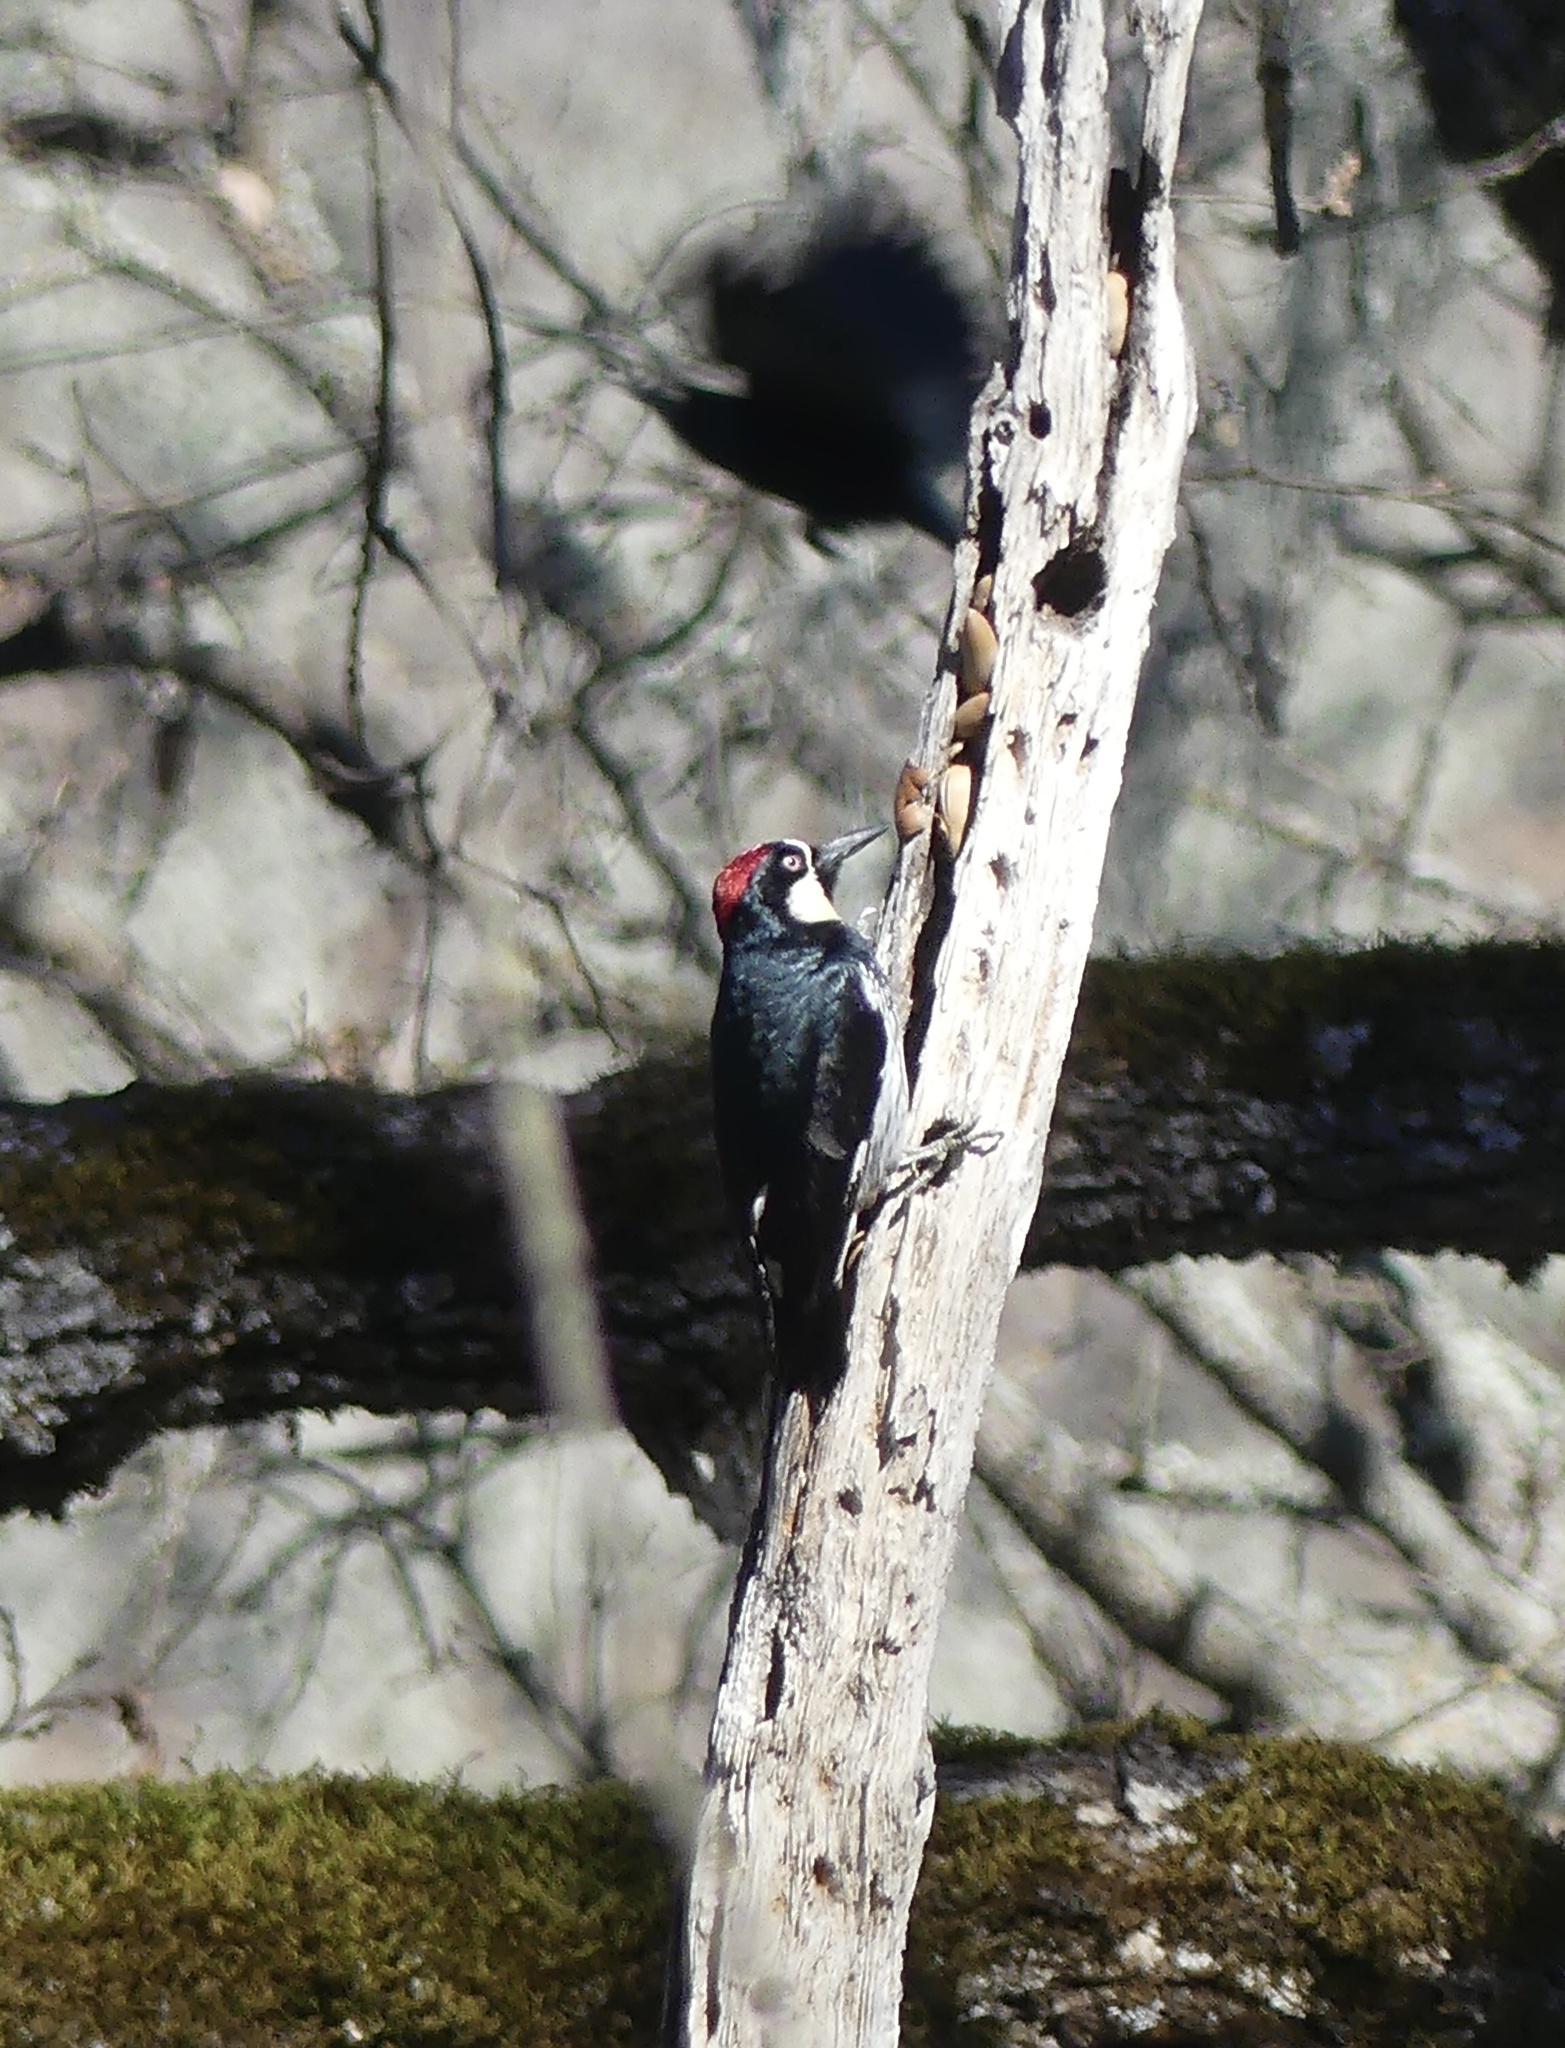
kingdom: Animalia
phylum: Chordata
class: Aves
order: Piciformes
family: Picidae
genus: Melanerpes
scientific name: Melanerpes formicivorus
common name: Acorn woodpecker
